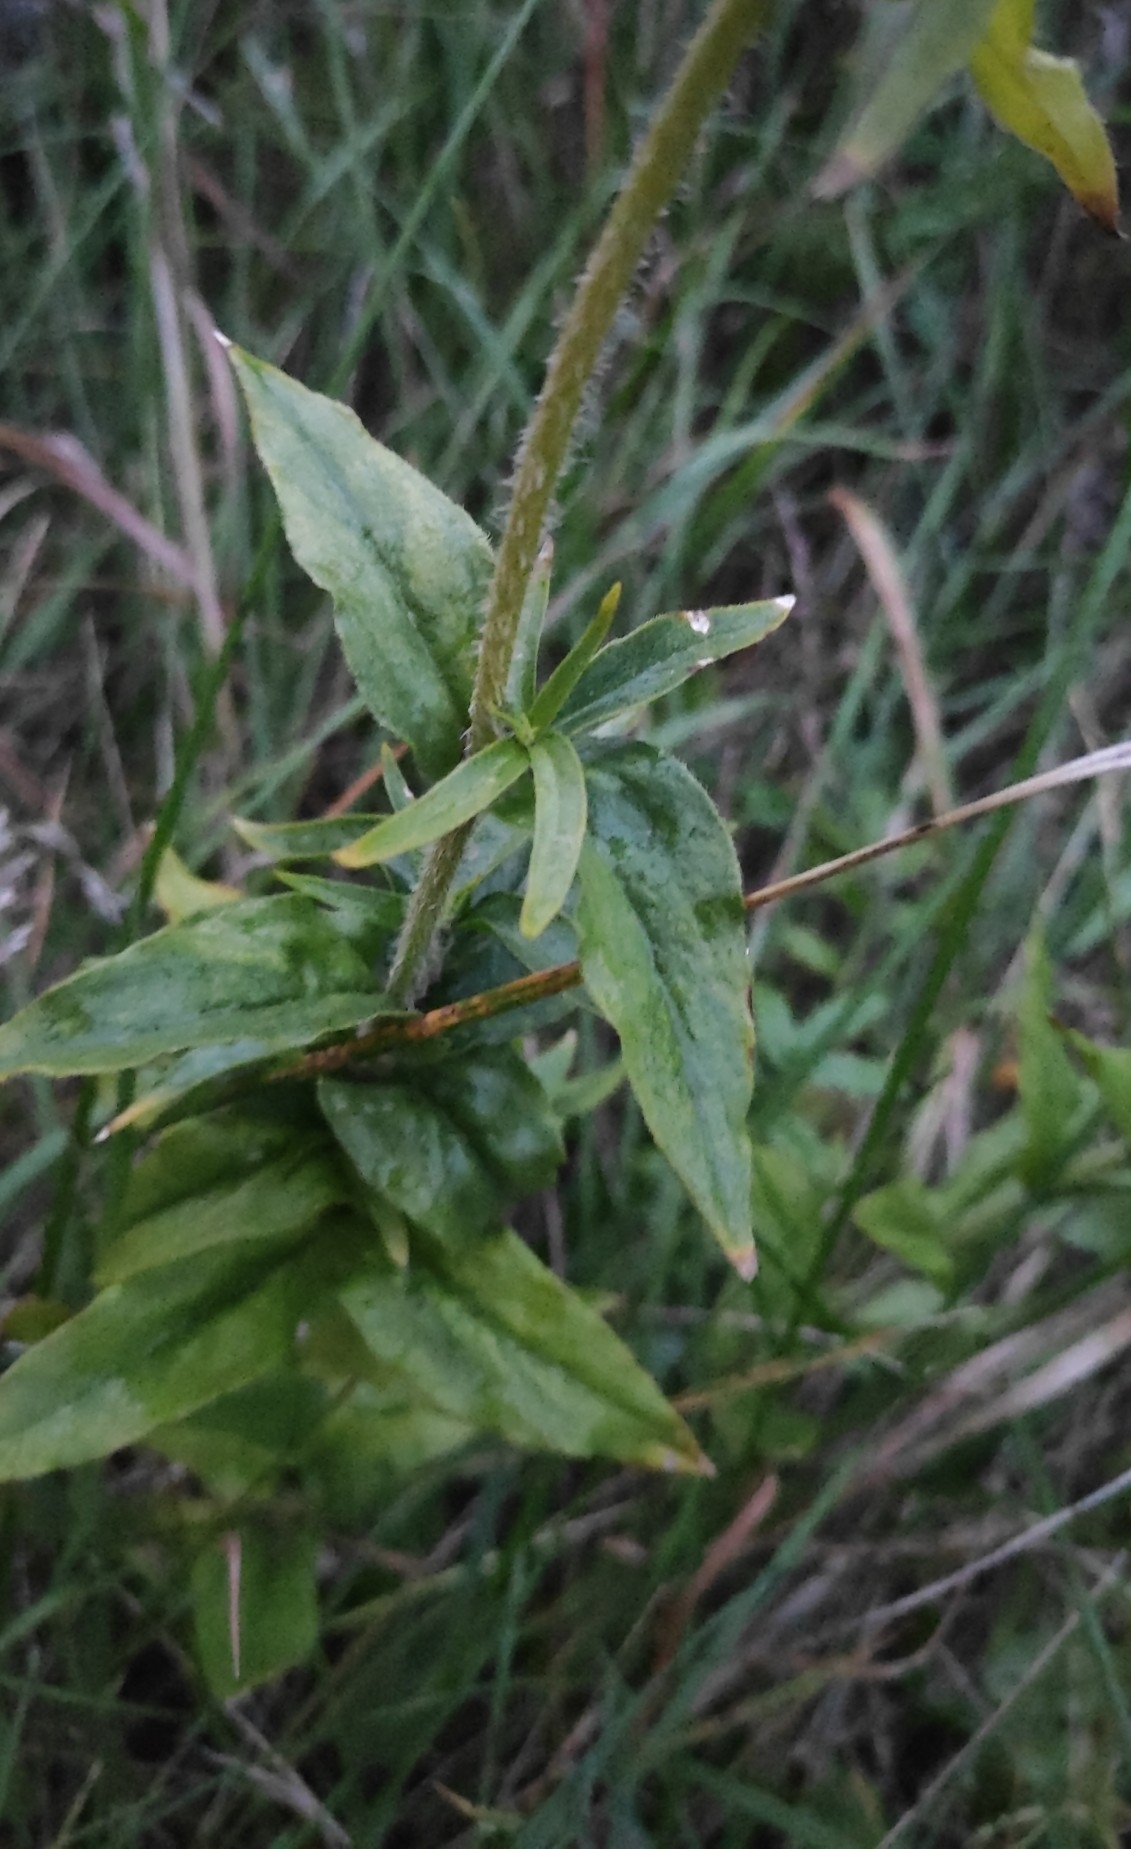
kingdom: Plantae
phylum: Tracheophyta
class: Magnoliopsida
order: Caryophyllales
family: Caryophyllaceae
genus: Saponaria
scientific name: Saponaria officinalis
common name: Soapwort
